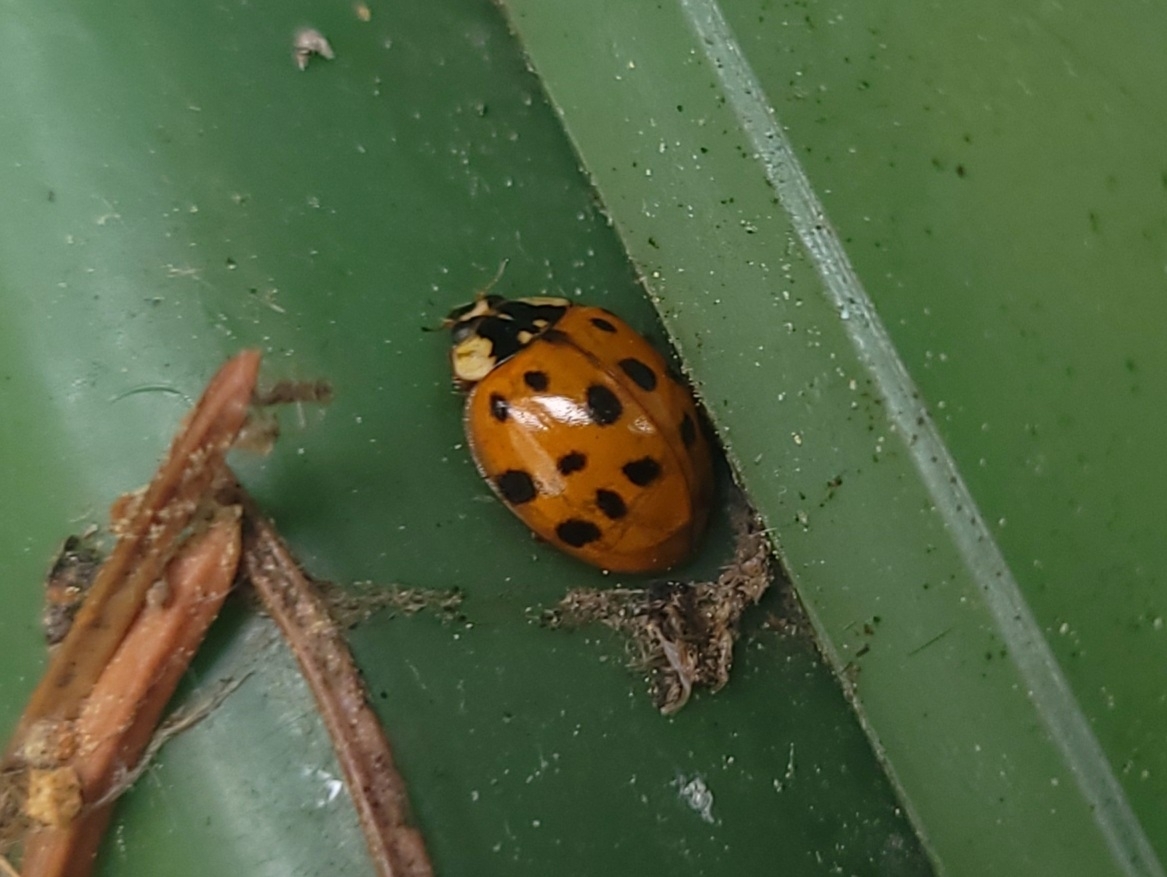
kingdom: Animalia
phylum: Arthropoda
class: Insecta
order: Coleoptera
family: Coccinellidae
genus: Harmonia
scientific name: Harmonia axyridis
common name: Harlequin ladybird
